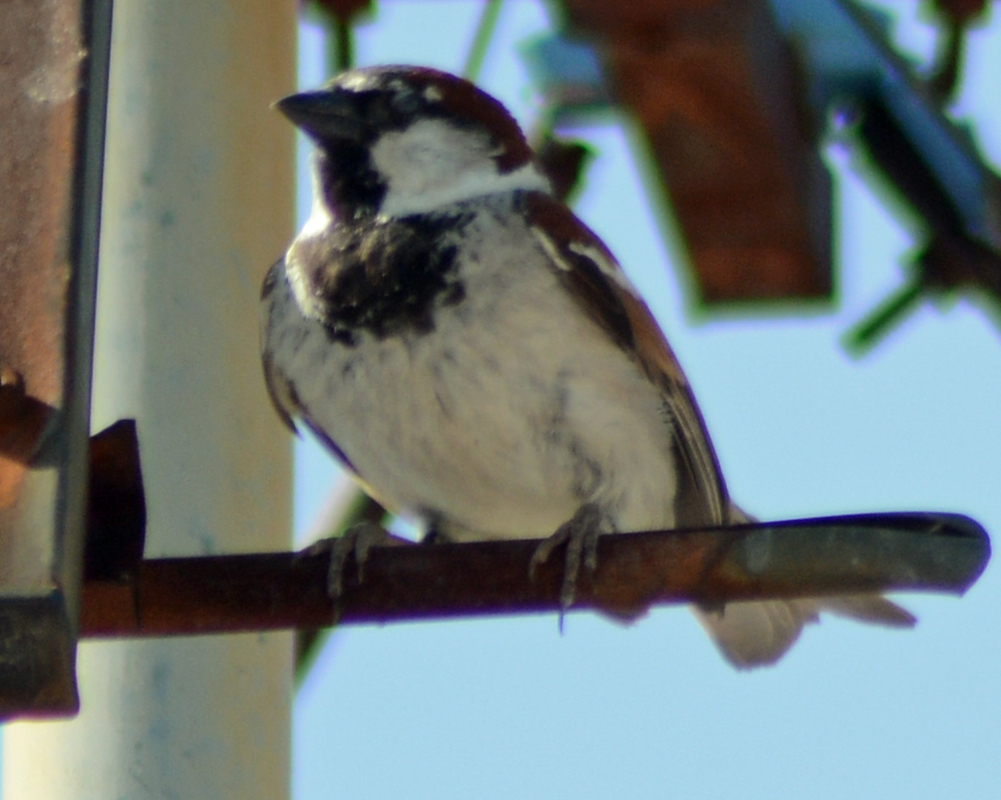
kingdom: Animalia
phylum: Chordata
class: Aves
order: Passeriformes
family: Passeridae
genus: Passer
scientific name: Passer domesticus
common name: House sparrow
